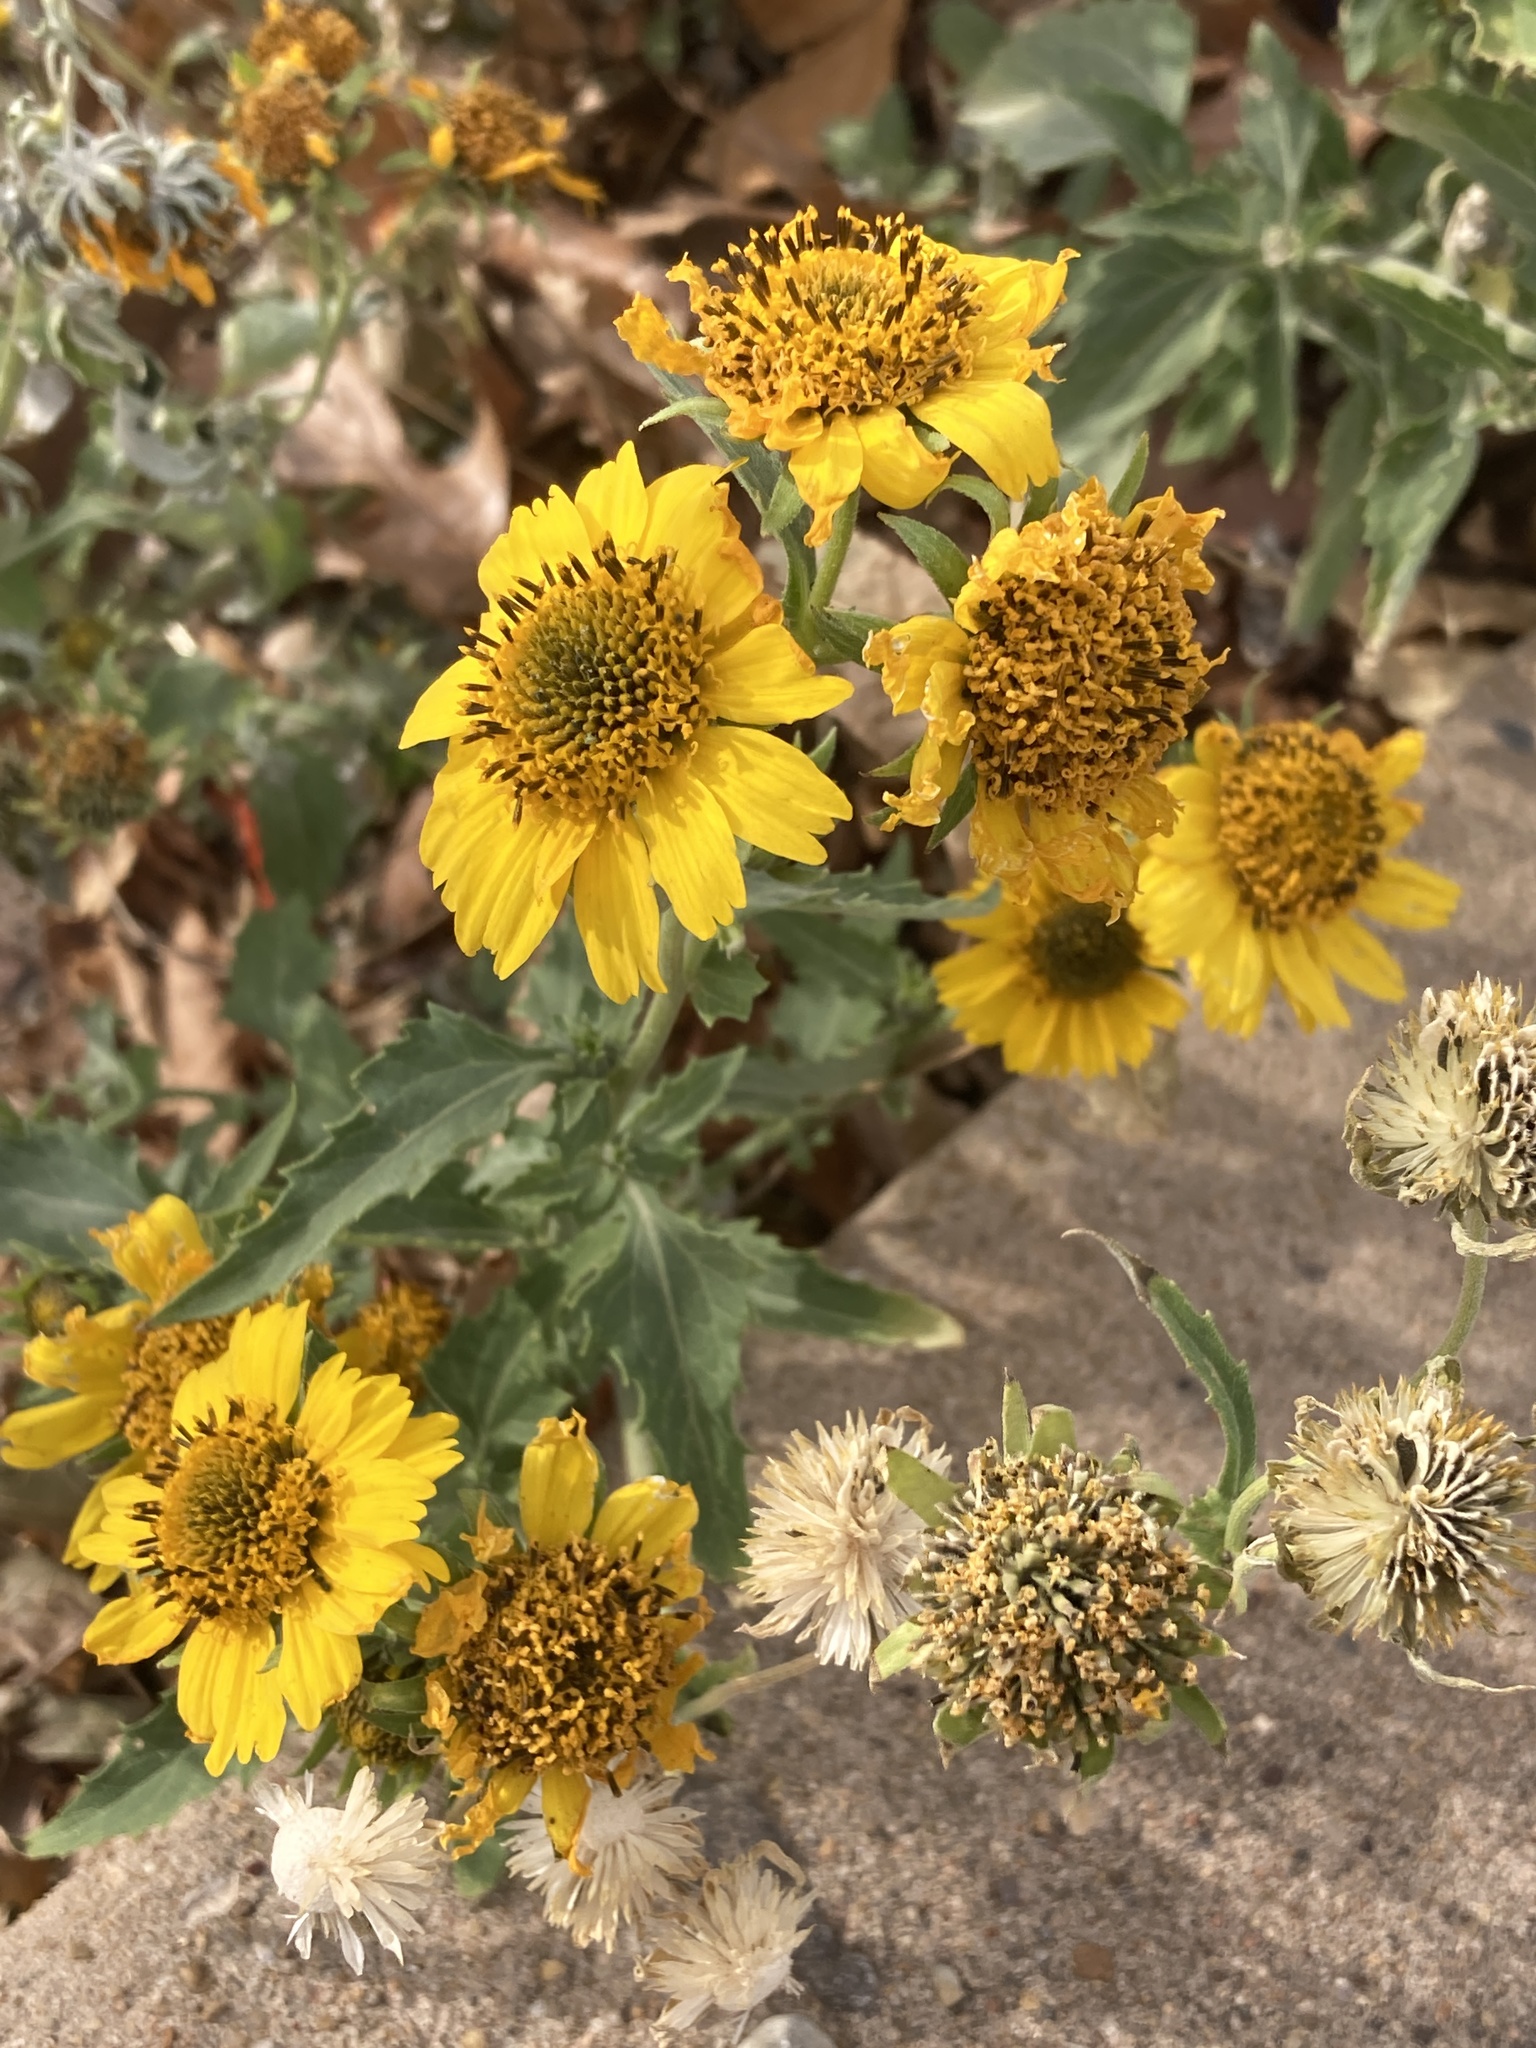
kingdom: Plantae
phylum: Tracheophyta
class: Magnoliopsida
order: Asterales
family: Asteraceae
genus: Verbesina
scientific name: Verbesina encelioides
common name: Golden crownbeard
